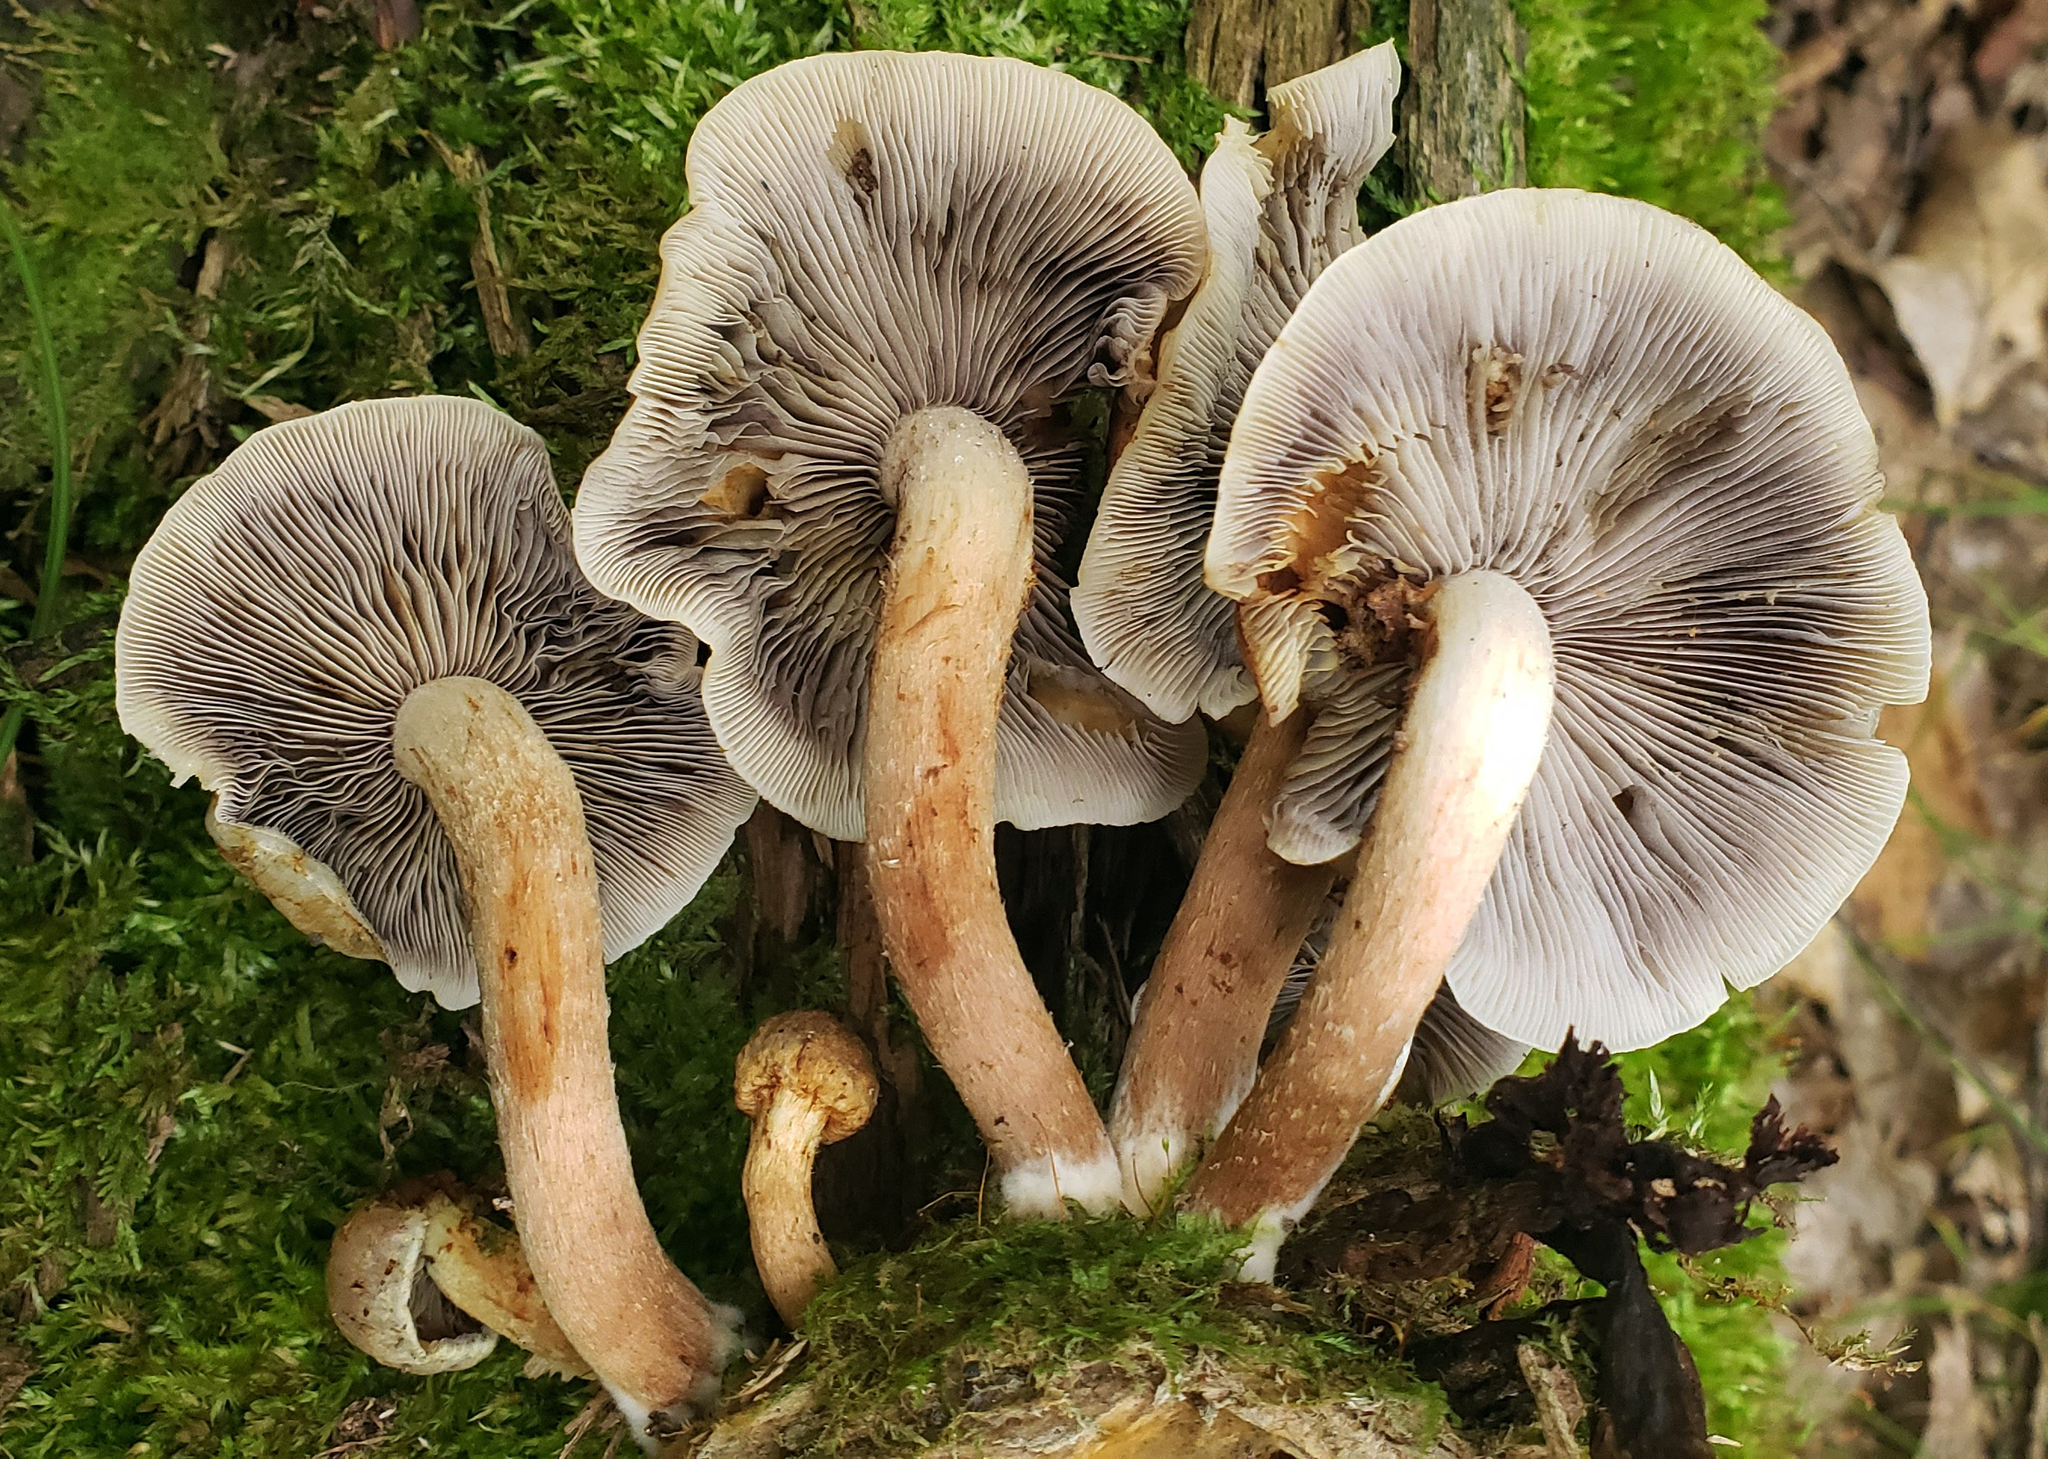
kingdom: Fungi
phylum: Basidiomycota
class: Agaricomycetes
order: Agaricales
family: Strophariaceae
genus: Hypholoma
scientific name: Hypholoma lateritium
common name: Brick caps
